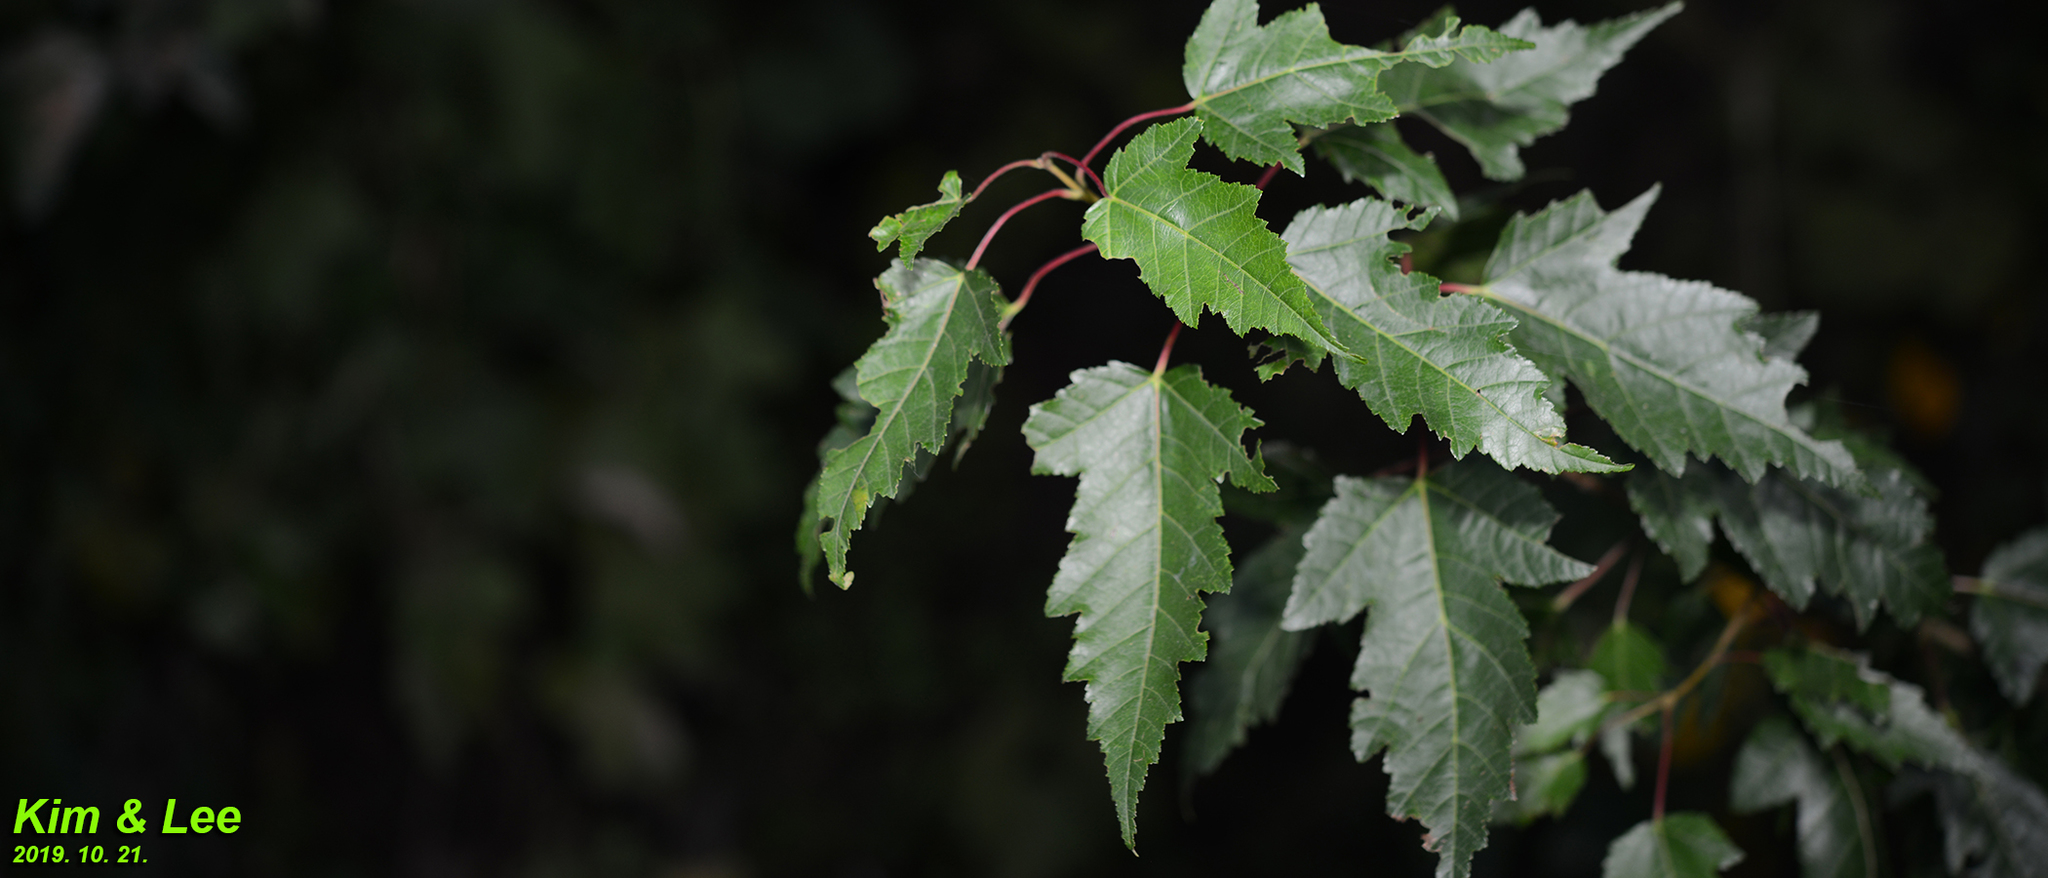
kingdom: Plantae
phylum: Tracheophyta
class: Magnoliopsida
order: Sapindales
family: Sapindaceae
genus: Acer
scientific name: Acer tataricum
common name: Tartar maple
